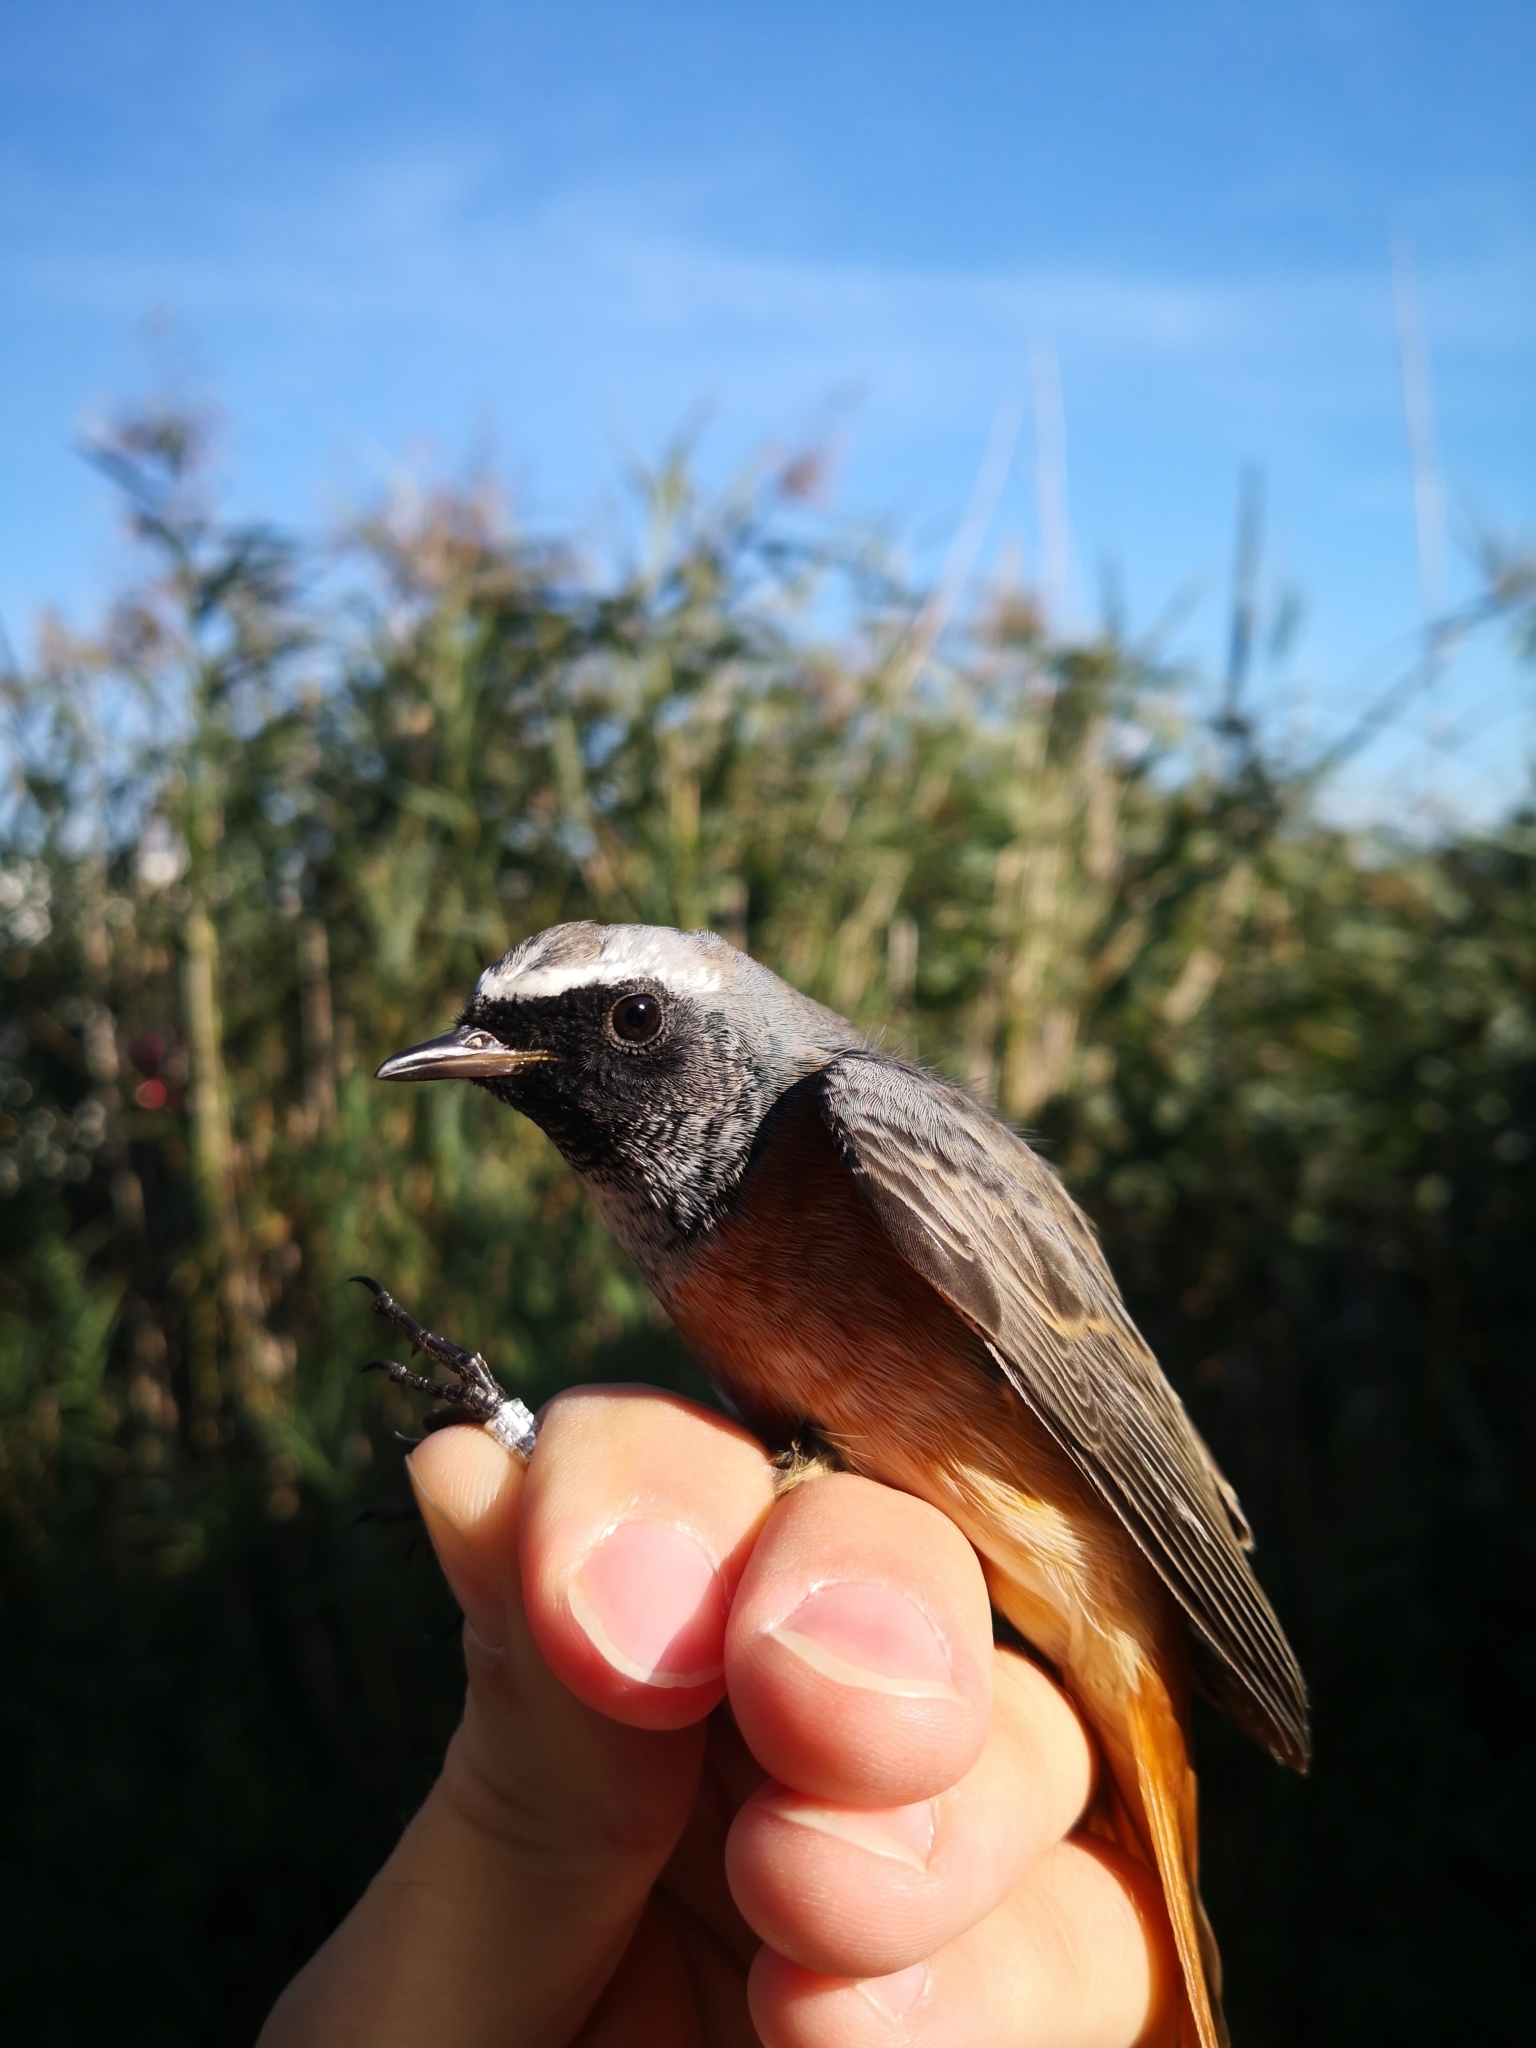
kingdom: Animalia
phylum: Chordata
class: Aves
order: Passeriformes
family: Muscicapidae
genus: Phoenicurus
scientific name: Phoenicurus phoenicurus
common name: Common redstart
